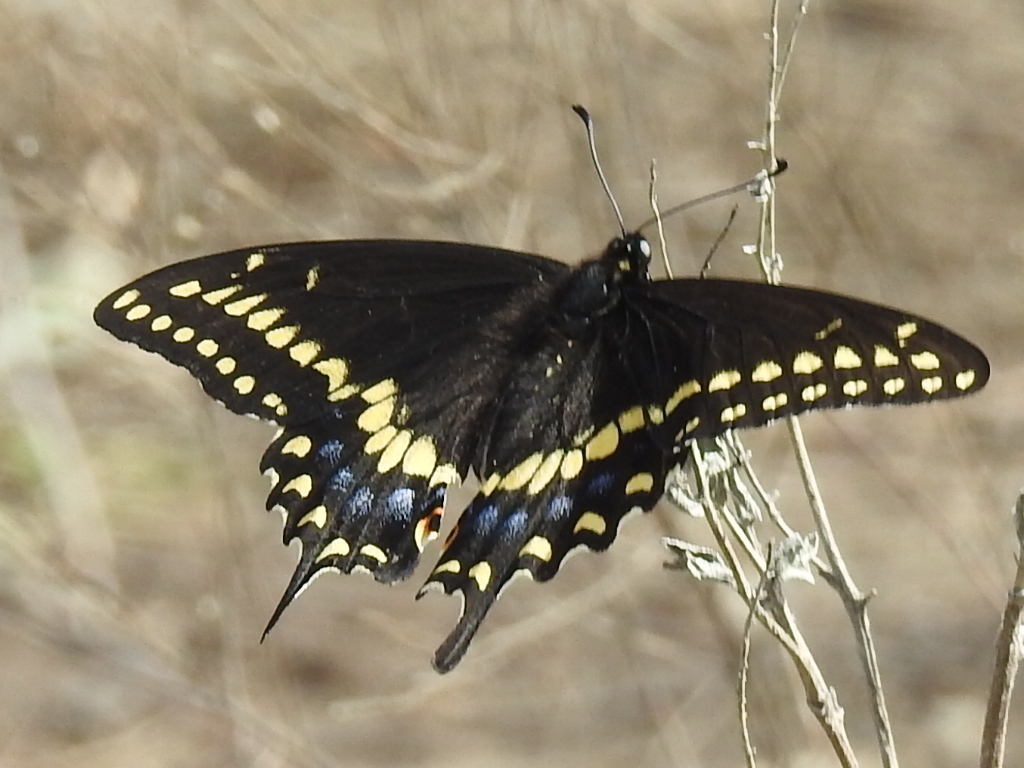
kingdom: Animalia
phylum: Arthropoda
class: Insecta
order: Lepidoptera
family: Papilionidae
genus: Papilio
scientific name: Papilio polyxenes
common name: Black swallowtail
